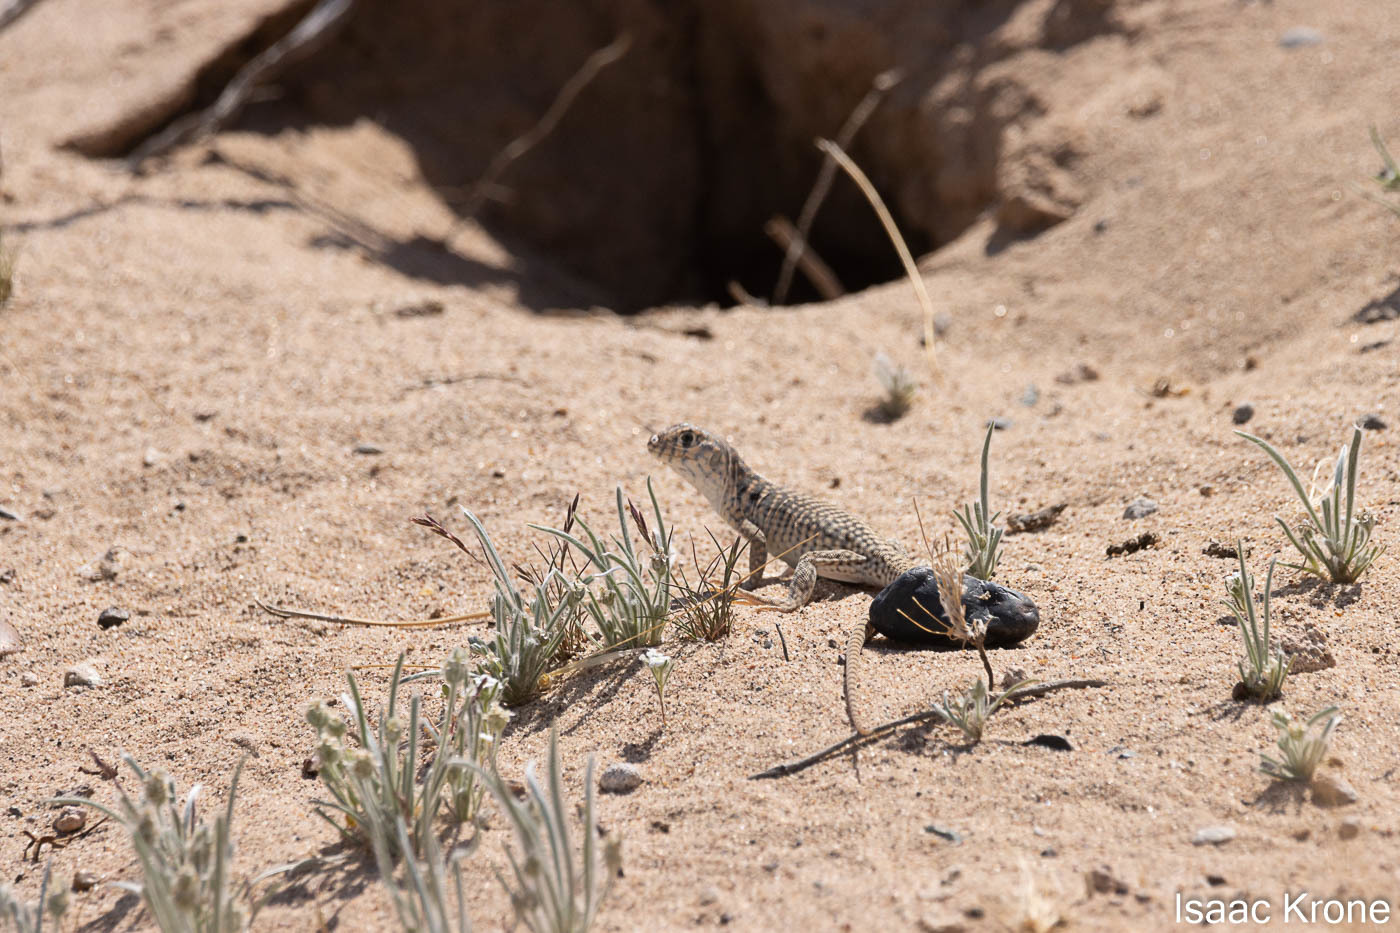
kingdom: Animalia
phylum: Chordata
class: Squamata
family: Iguanidae
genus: Dipsosaurus
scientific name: Dipsosaurus dorsalis
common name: Desert iguana
